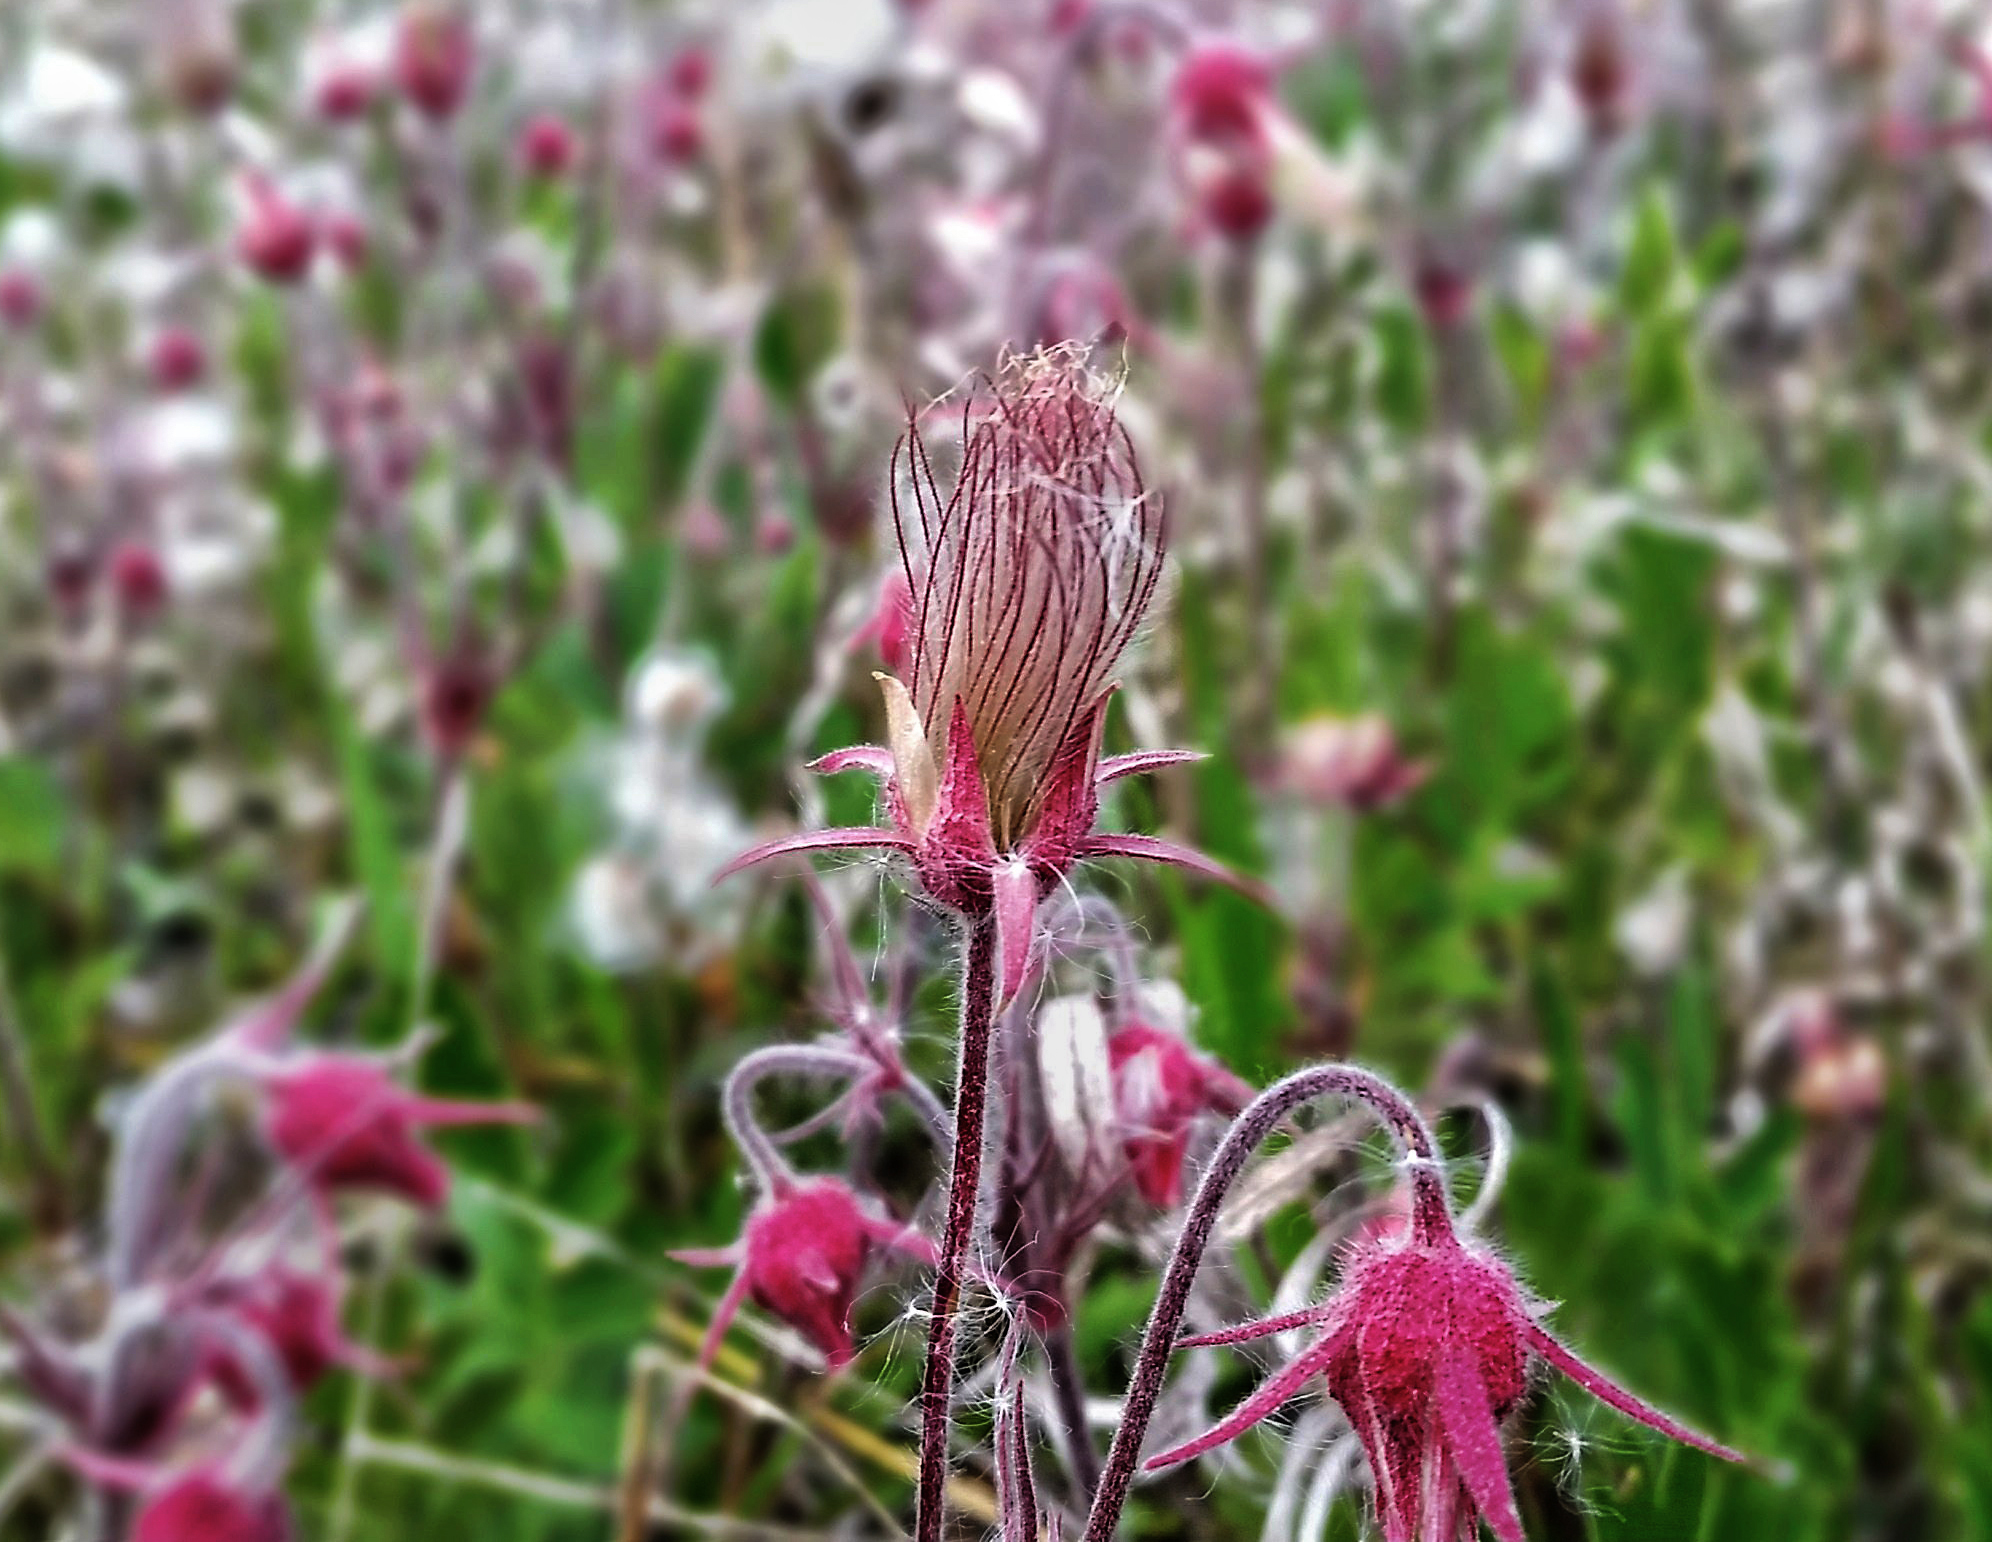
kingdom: Plantae
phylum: Tracheophyta
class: Magnoliopsida
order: Rosales
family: Rosaceae
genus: Geum
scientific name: Geum triflorum
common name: Old man's whiskers
